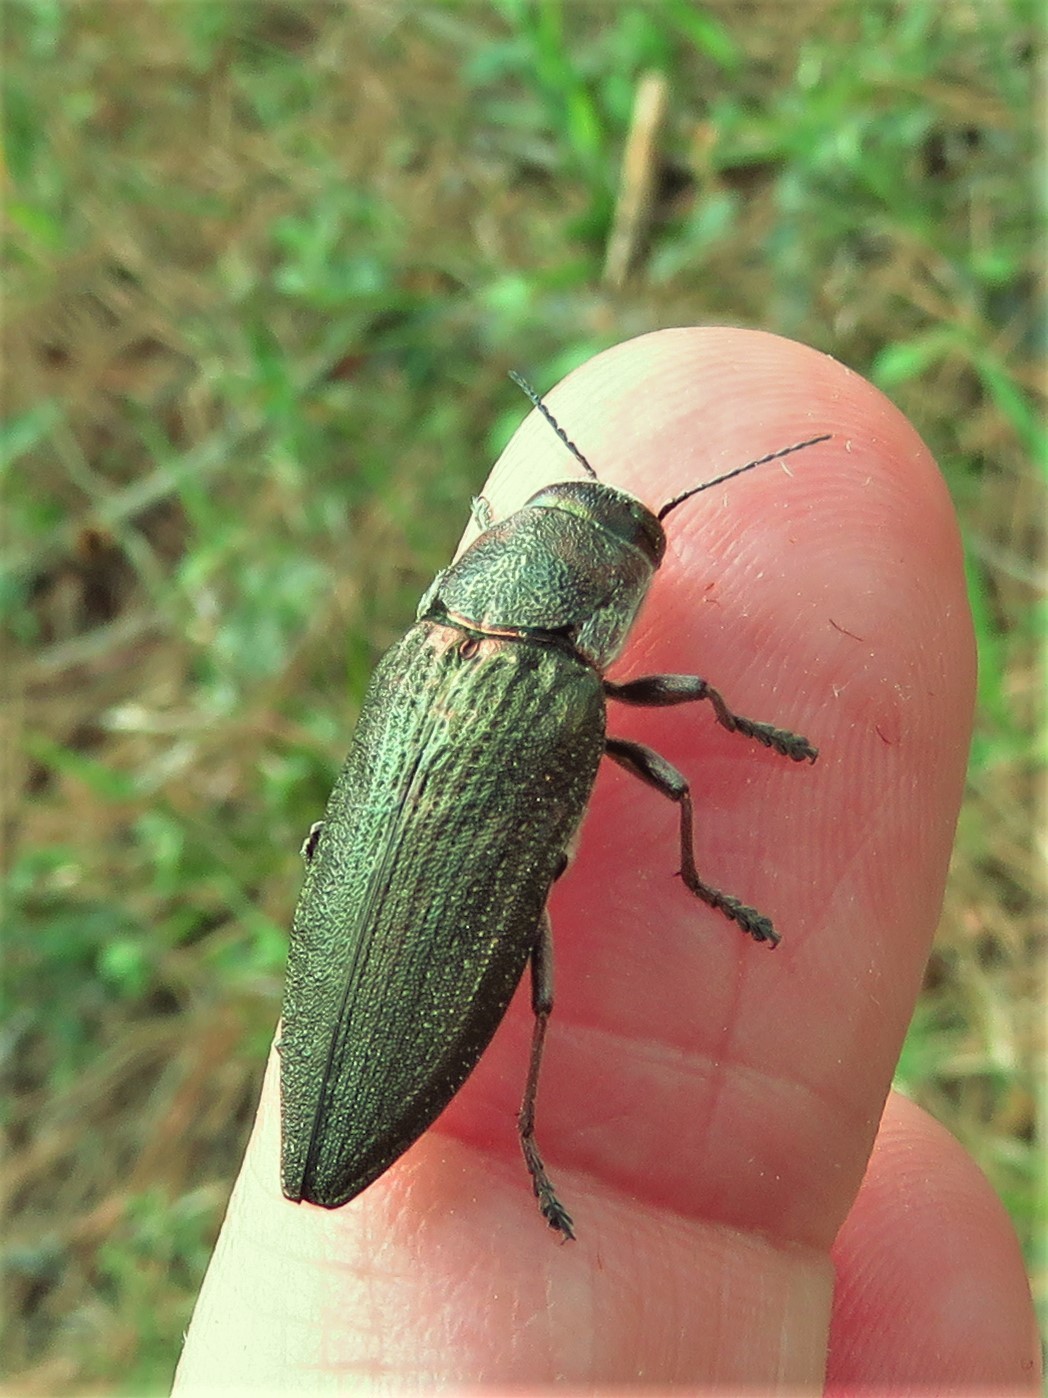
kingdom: Animalia
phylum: Arthropoda
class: Insecta
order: Coleoptera
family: Buprestidae
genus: Buprestis
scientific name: Buprestis apricans
